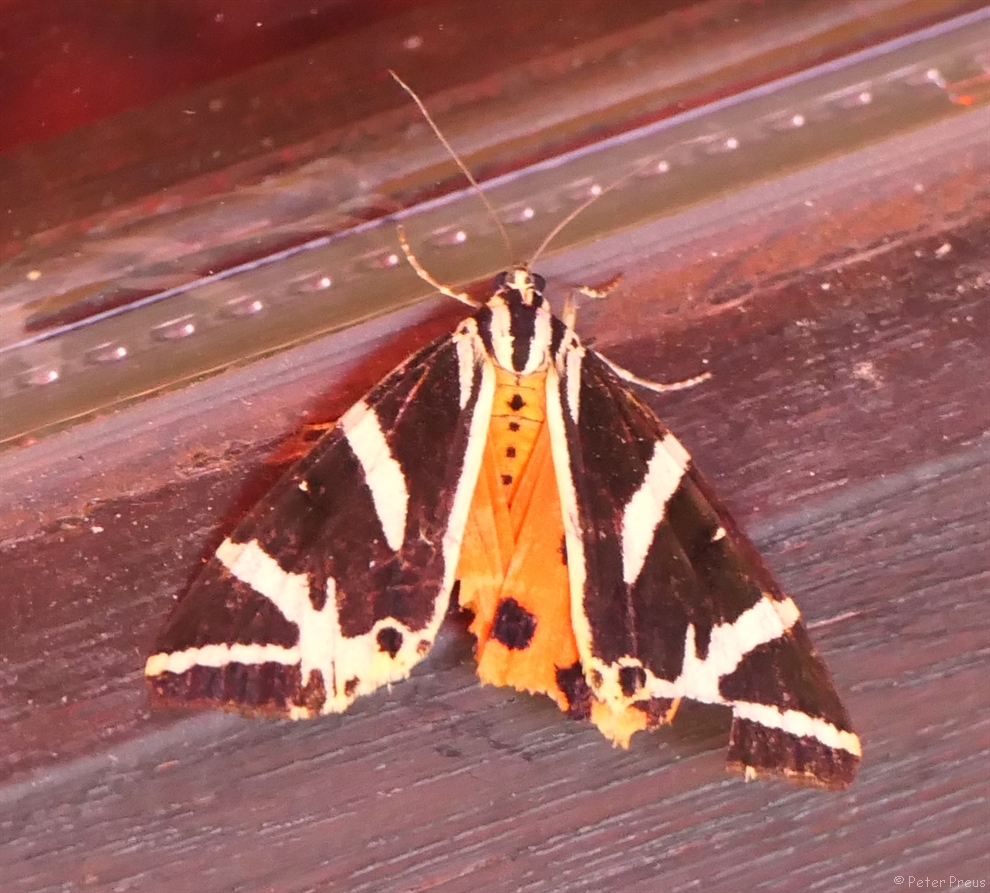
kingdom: Animalia
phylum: Arthropoda
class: Insecta
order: Lepidoptera
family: Erebidae
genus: Euplagia
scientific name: Euplagia quadripunctaria
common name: Jersey tiger
